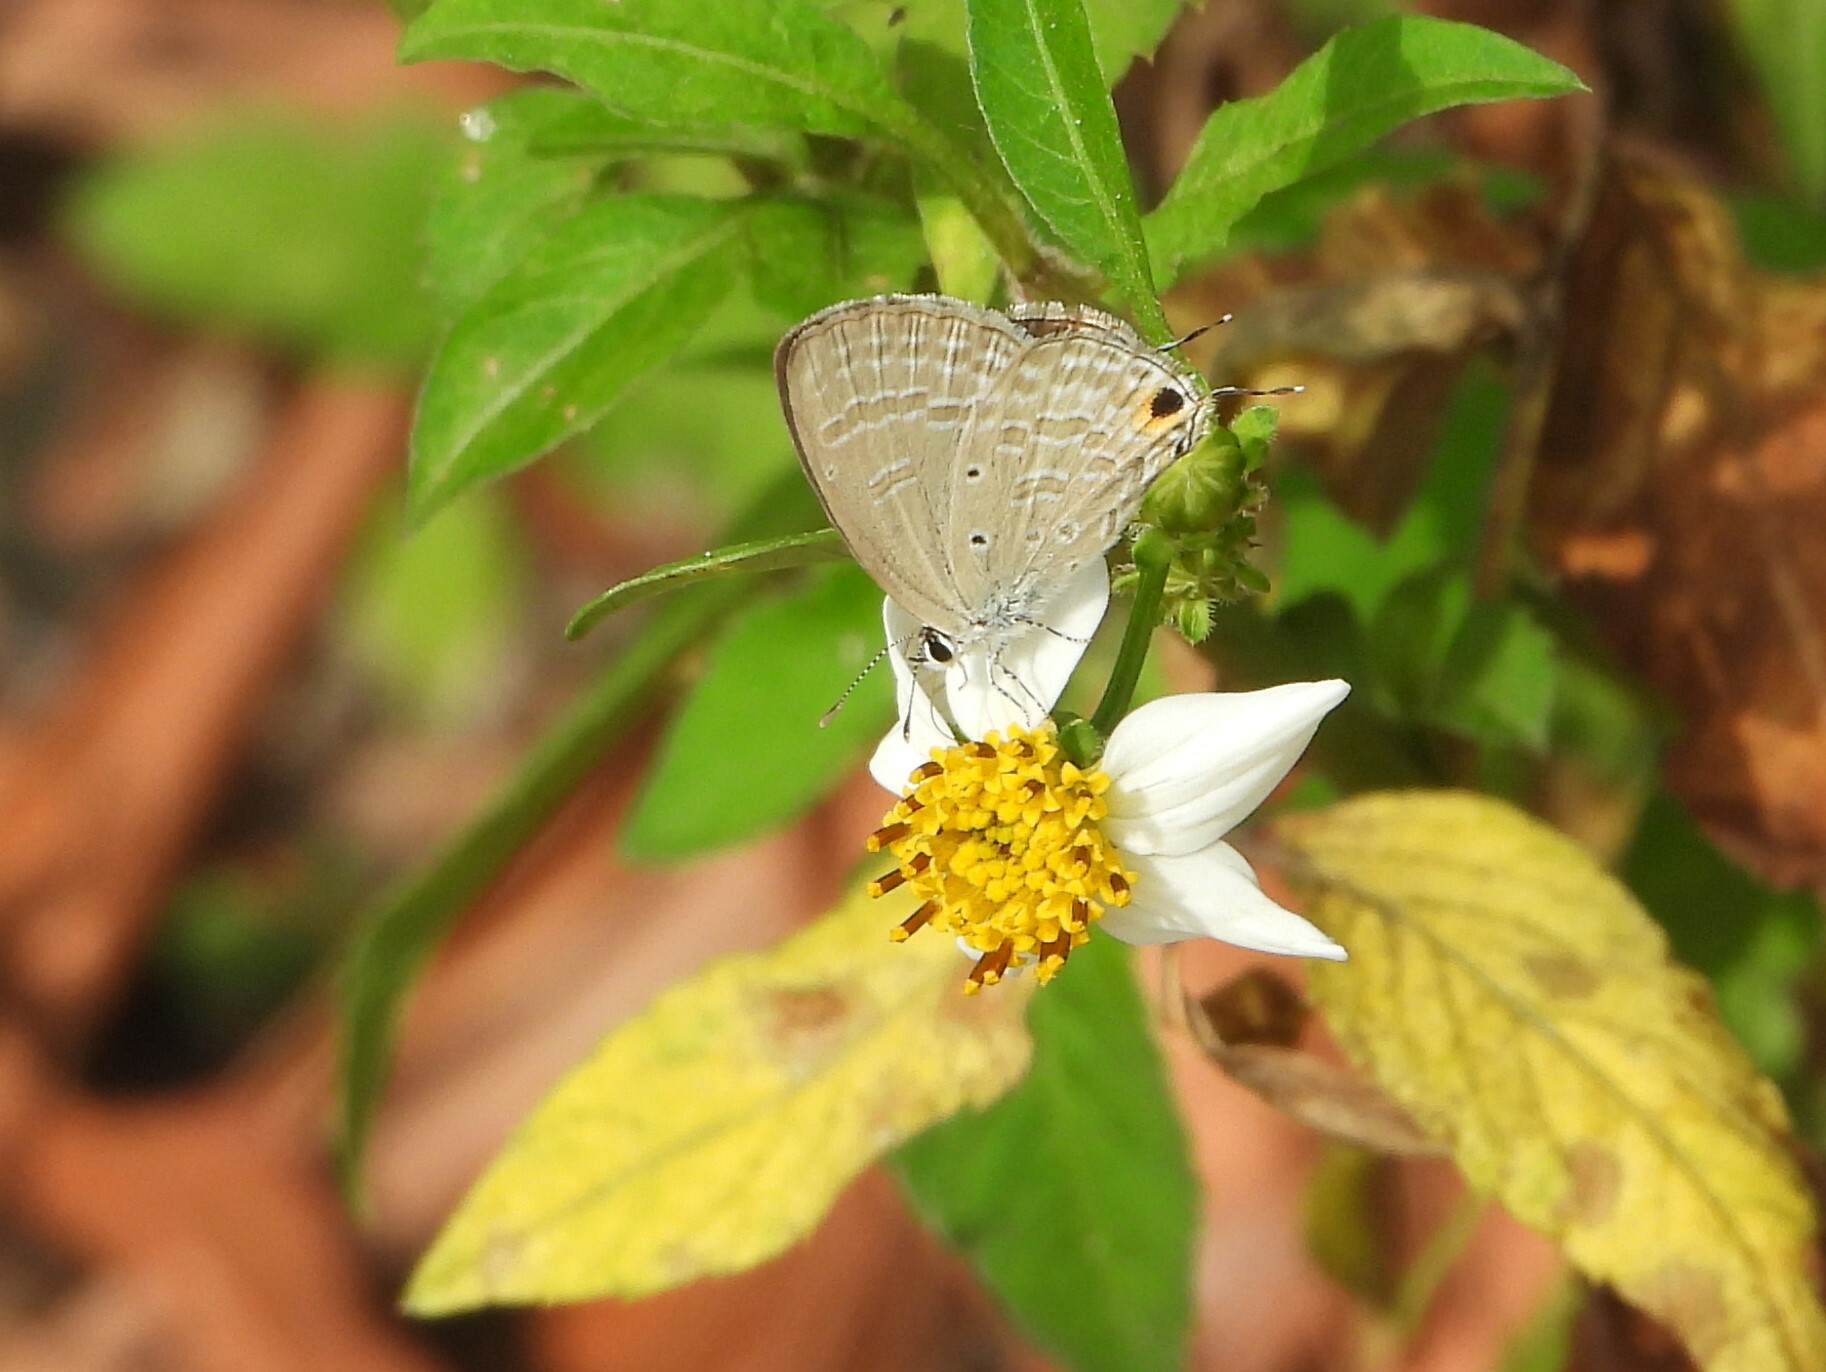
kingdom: Animalia
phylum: Arthropoda
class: Insecta
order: Lepidoptera
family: Lycaenidae
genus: Catochrysops
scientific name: Catochrysops strabo
